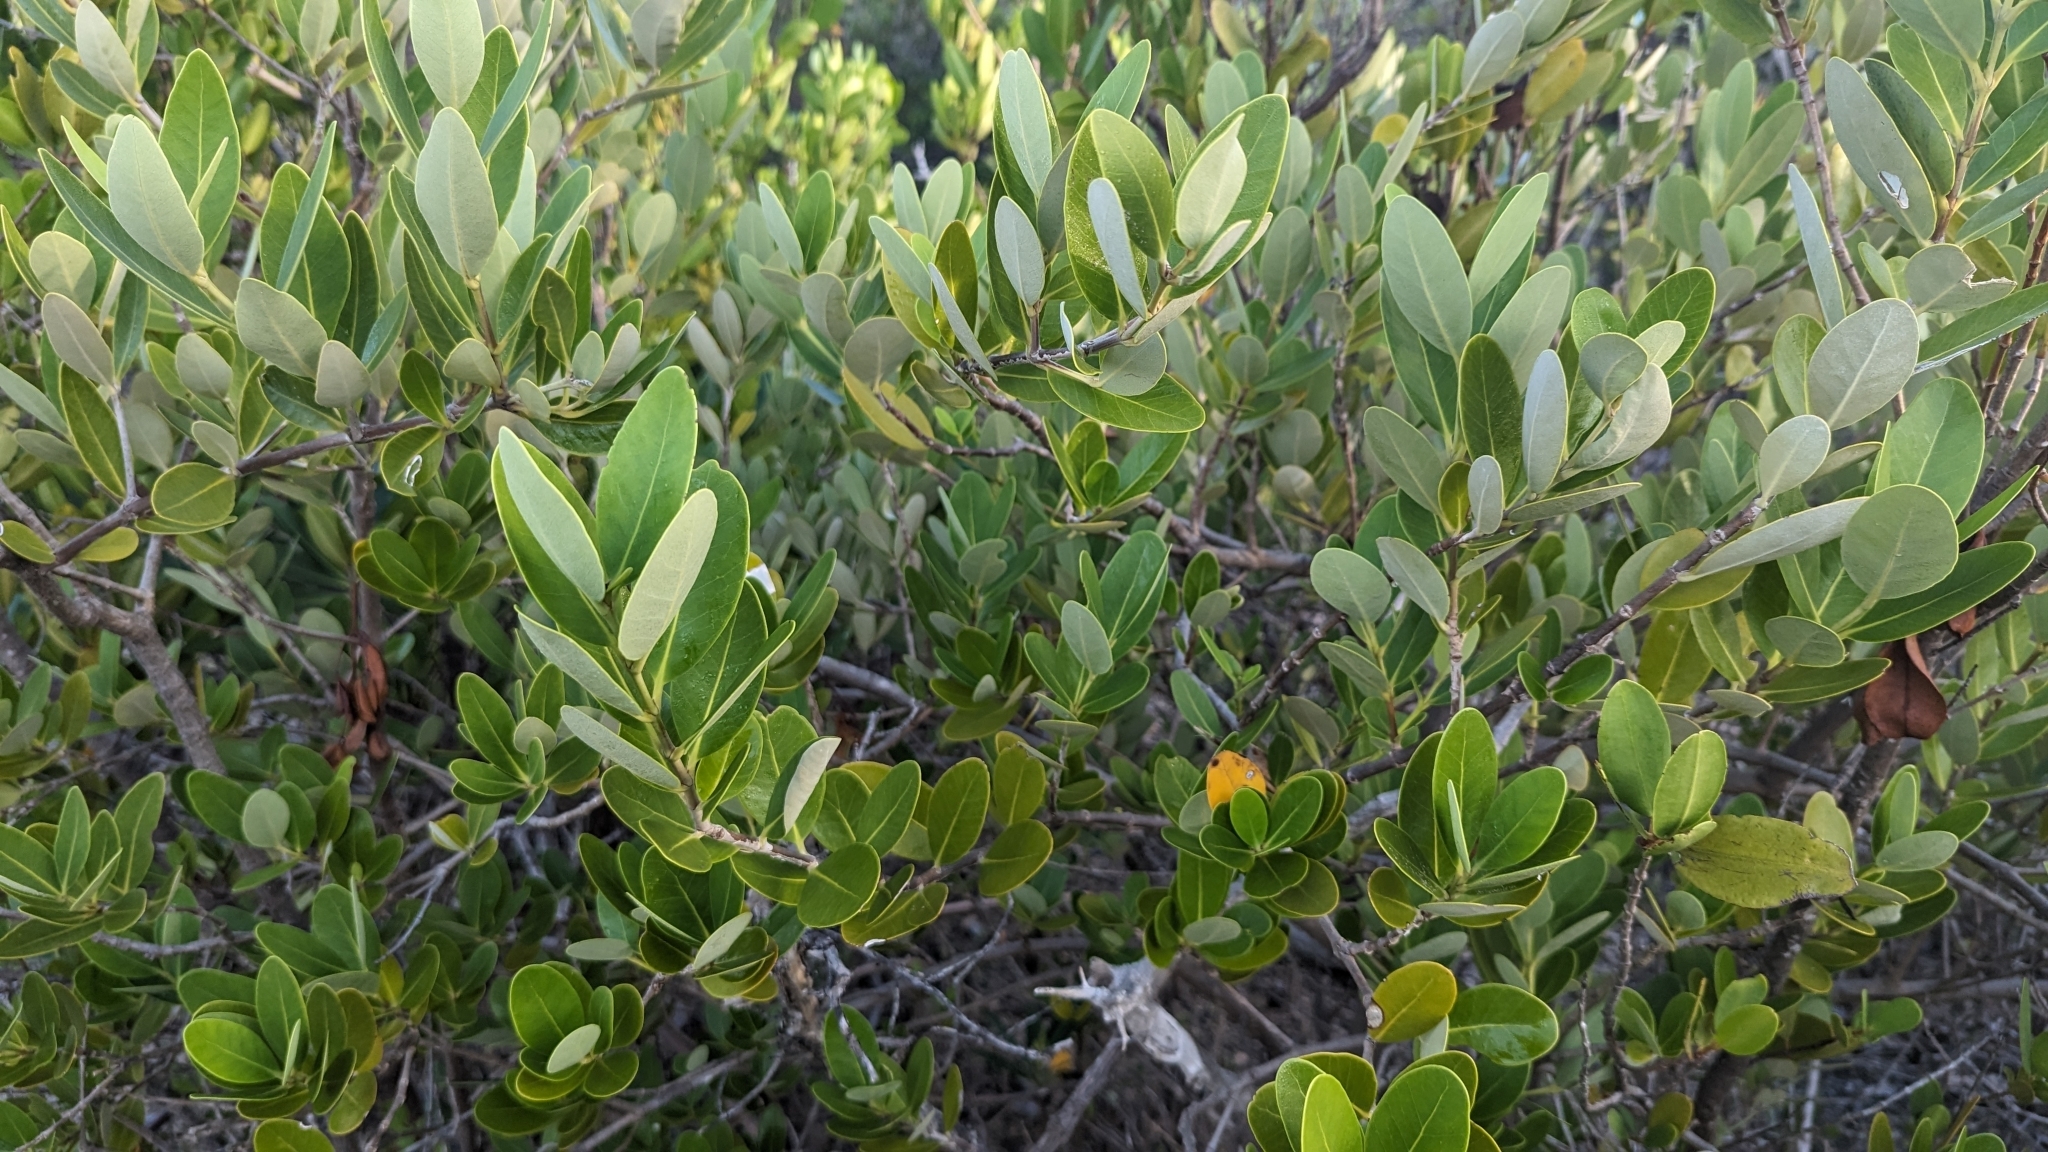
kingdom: Plantae
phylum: Tracheophyta
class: Magnoliopsida
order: Malpighiales
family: Rhizophoraceae
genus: Rhizophora
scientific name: Rhizophora mangle
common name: Red mangrove
